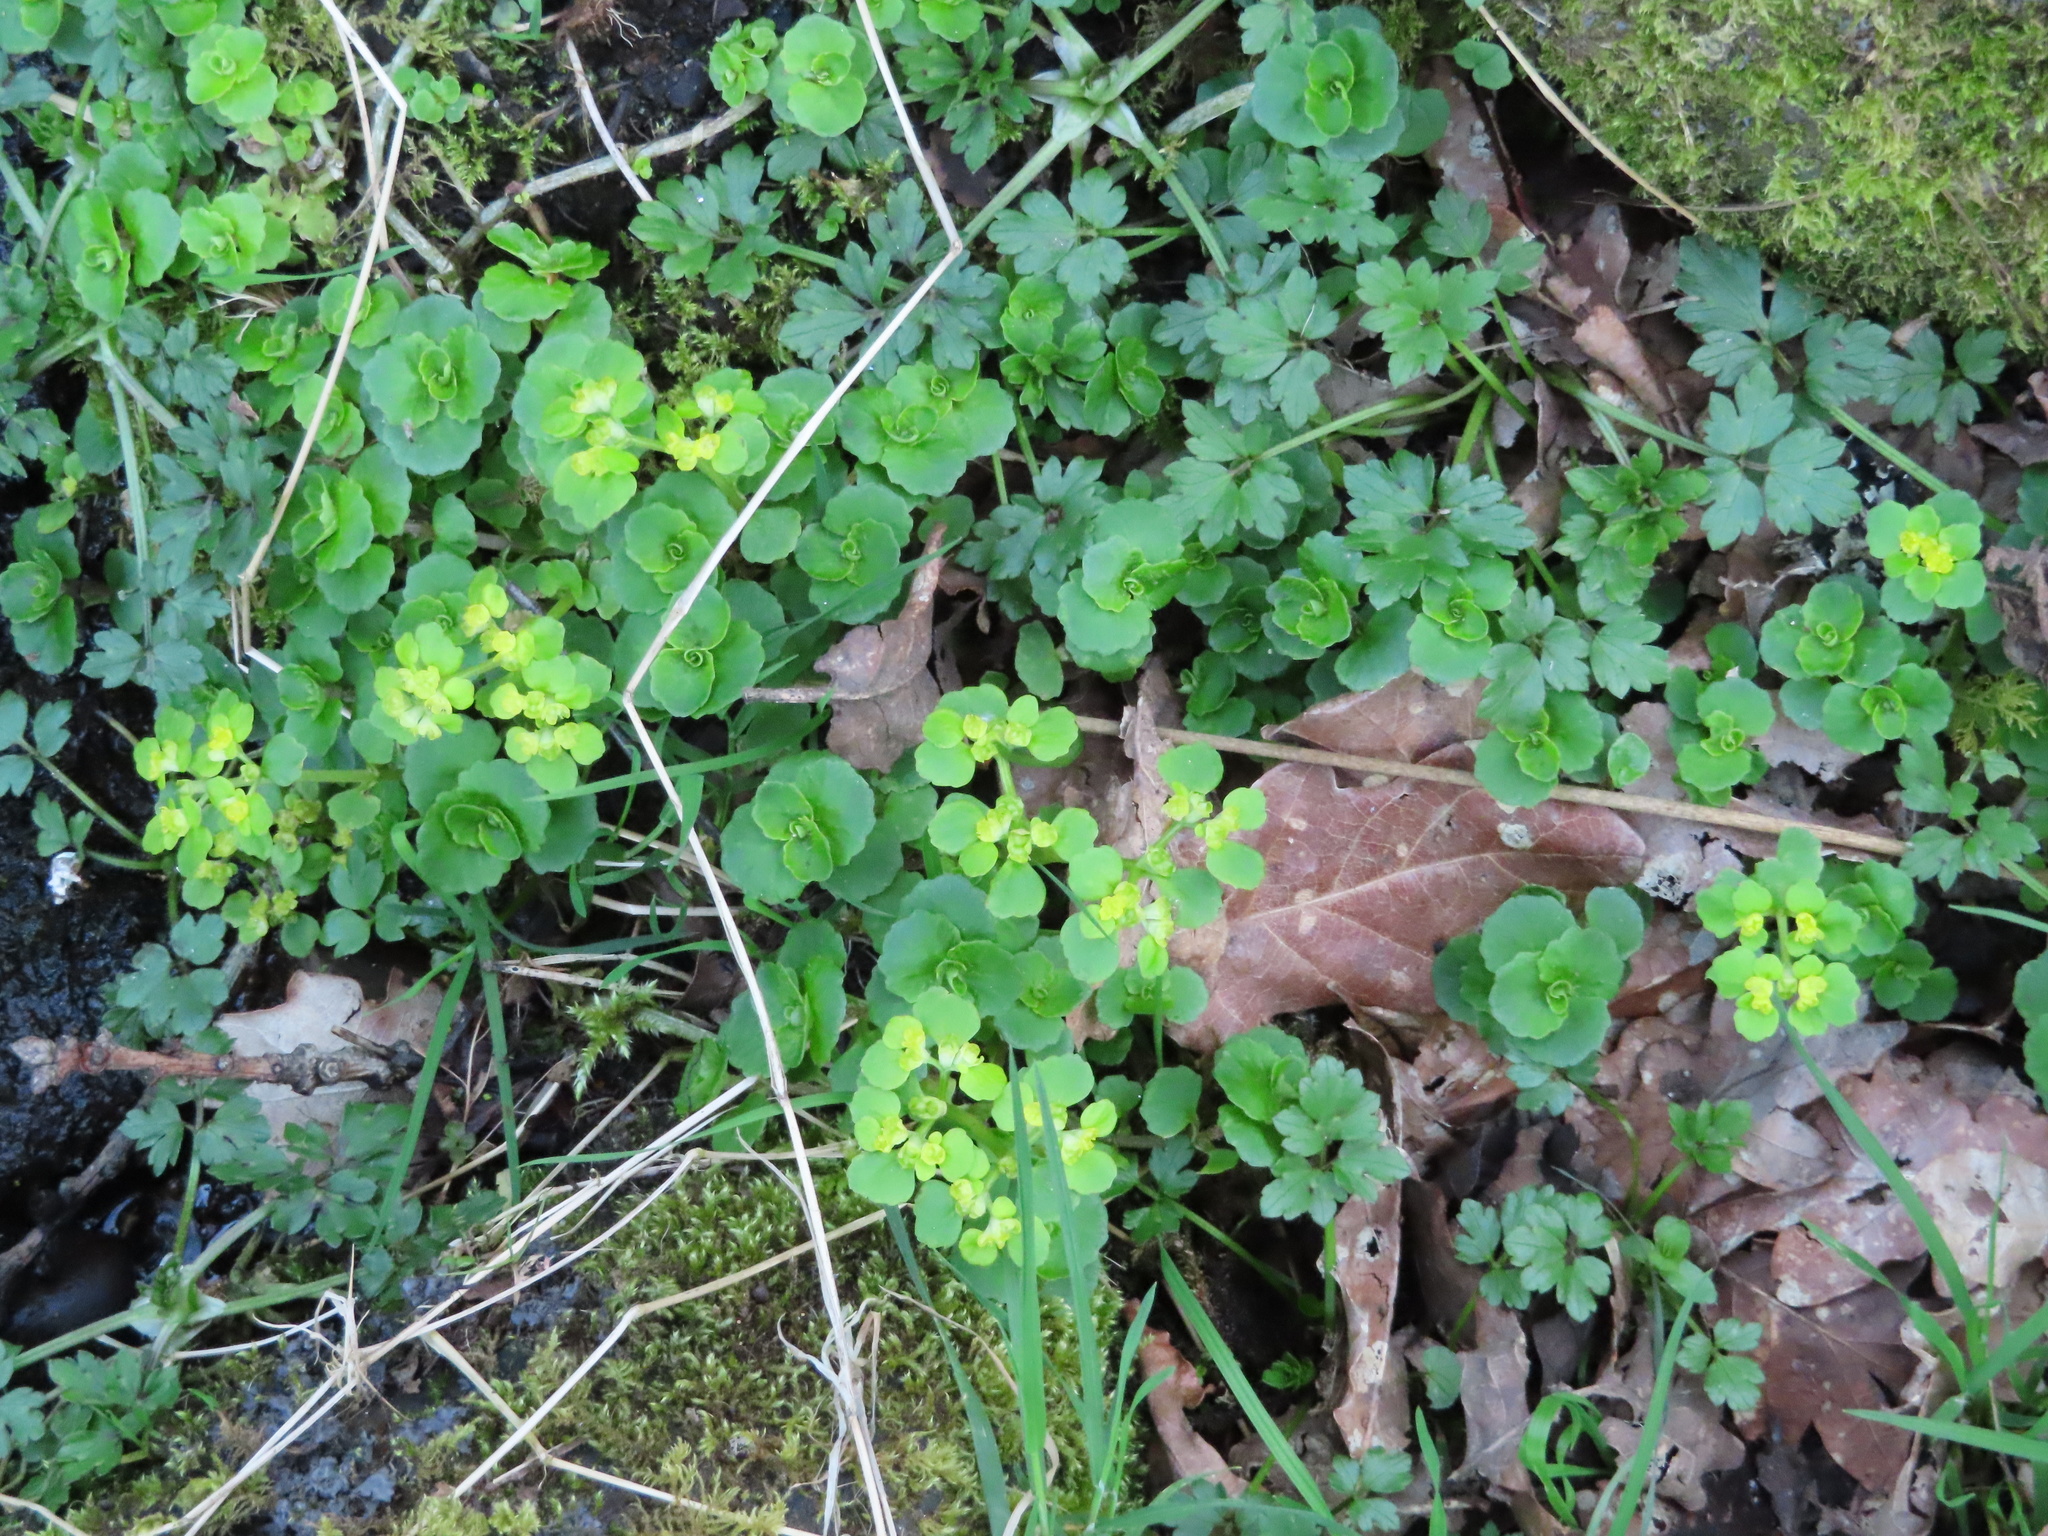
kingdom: Plantae
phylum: Tracheophyta
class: Magnoliopsida
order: Saxifragales
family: Saxifragaceae
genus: Chrysosplenium
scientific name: Chrysosplenium oppositifolium
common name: Opposite-leaved golden-saxifrage
